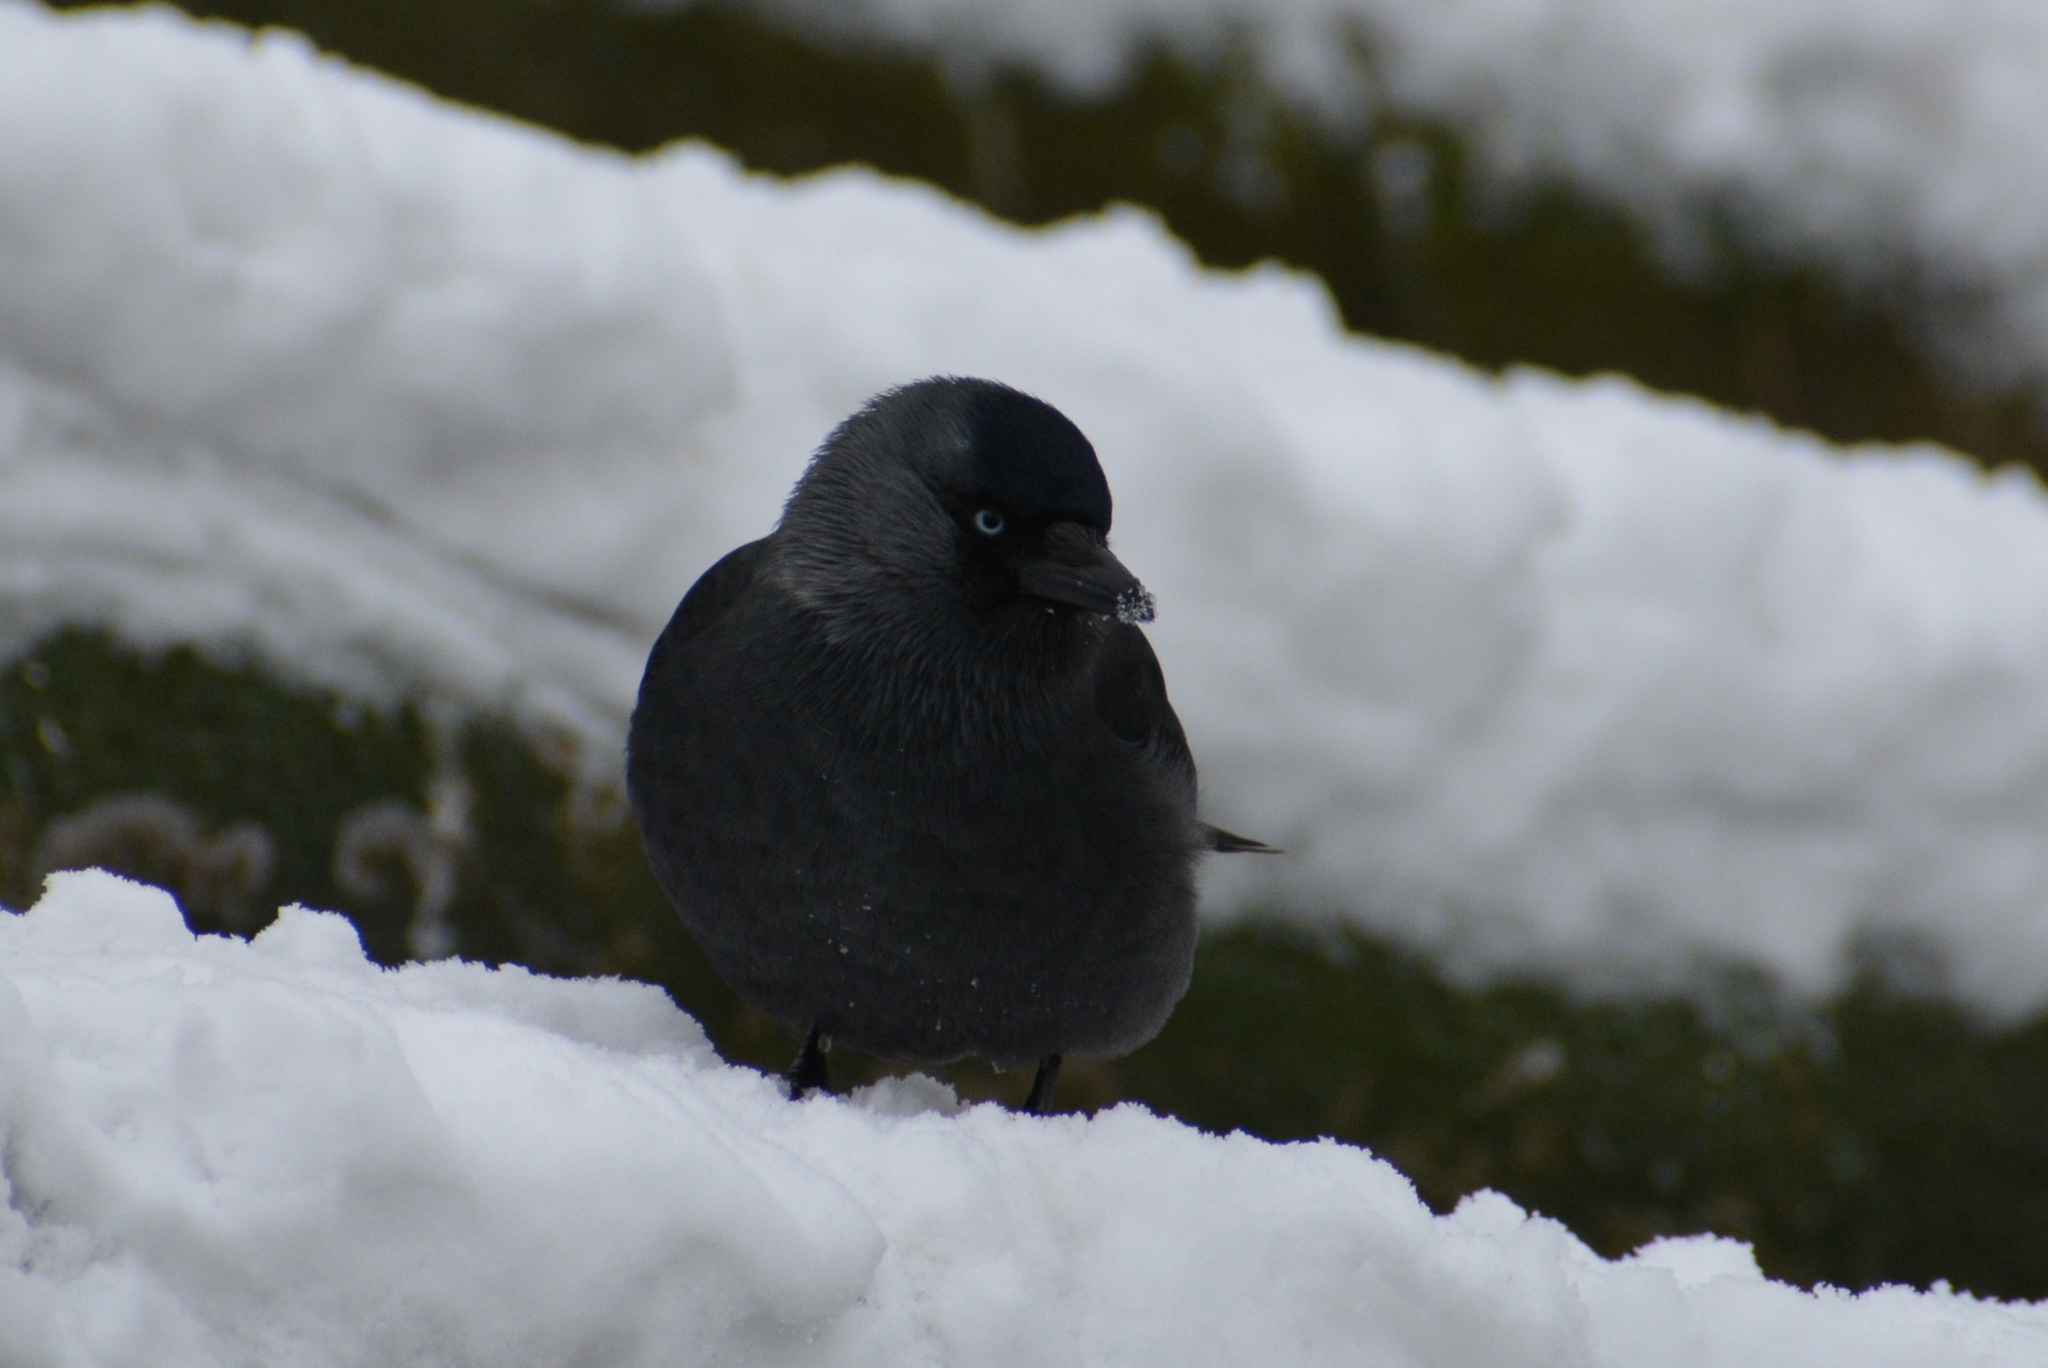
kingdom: Animalia
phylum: Chordata
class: Aves
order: Passeriformes
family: Corvidae
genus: Coloeus
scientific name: Coloeus monedula
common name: Western jackdaw
